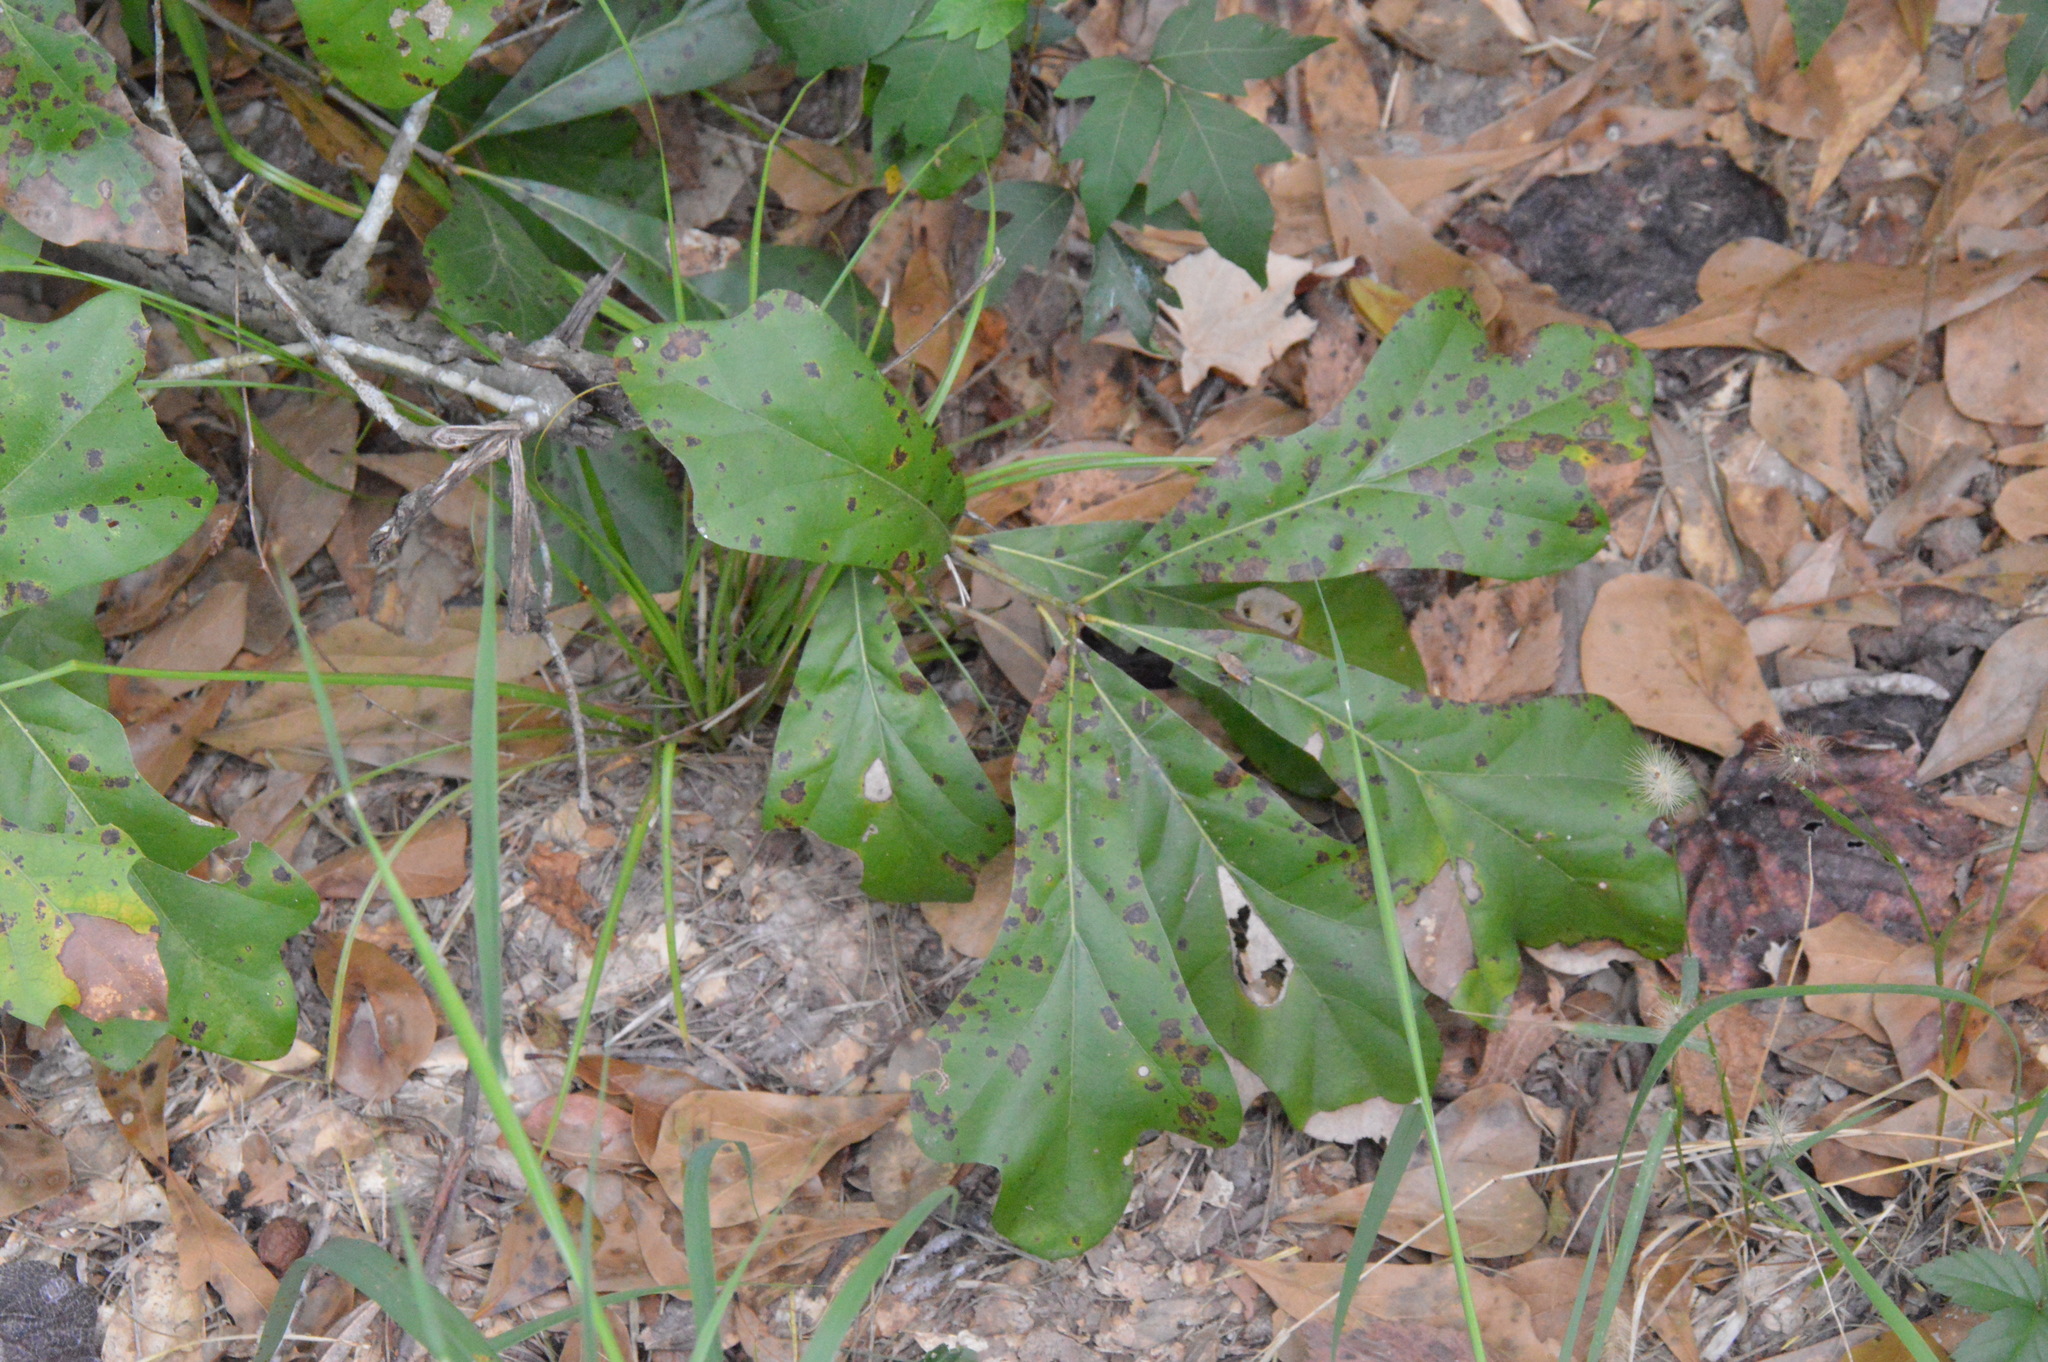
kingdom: Plantae
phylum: Tracheophyta
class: Magnoliopsida
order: Fagales
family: Fagaceae
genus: Quercus
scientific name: Quercus nigra
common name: Water oak
